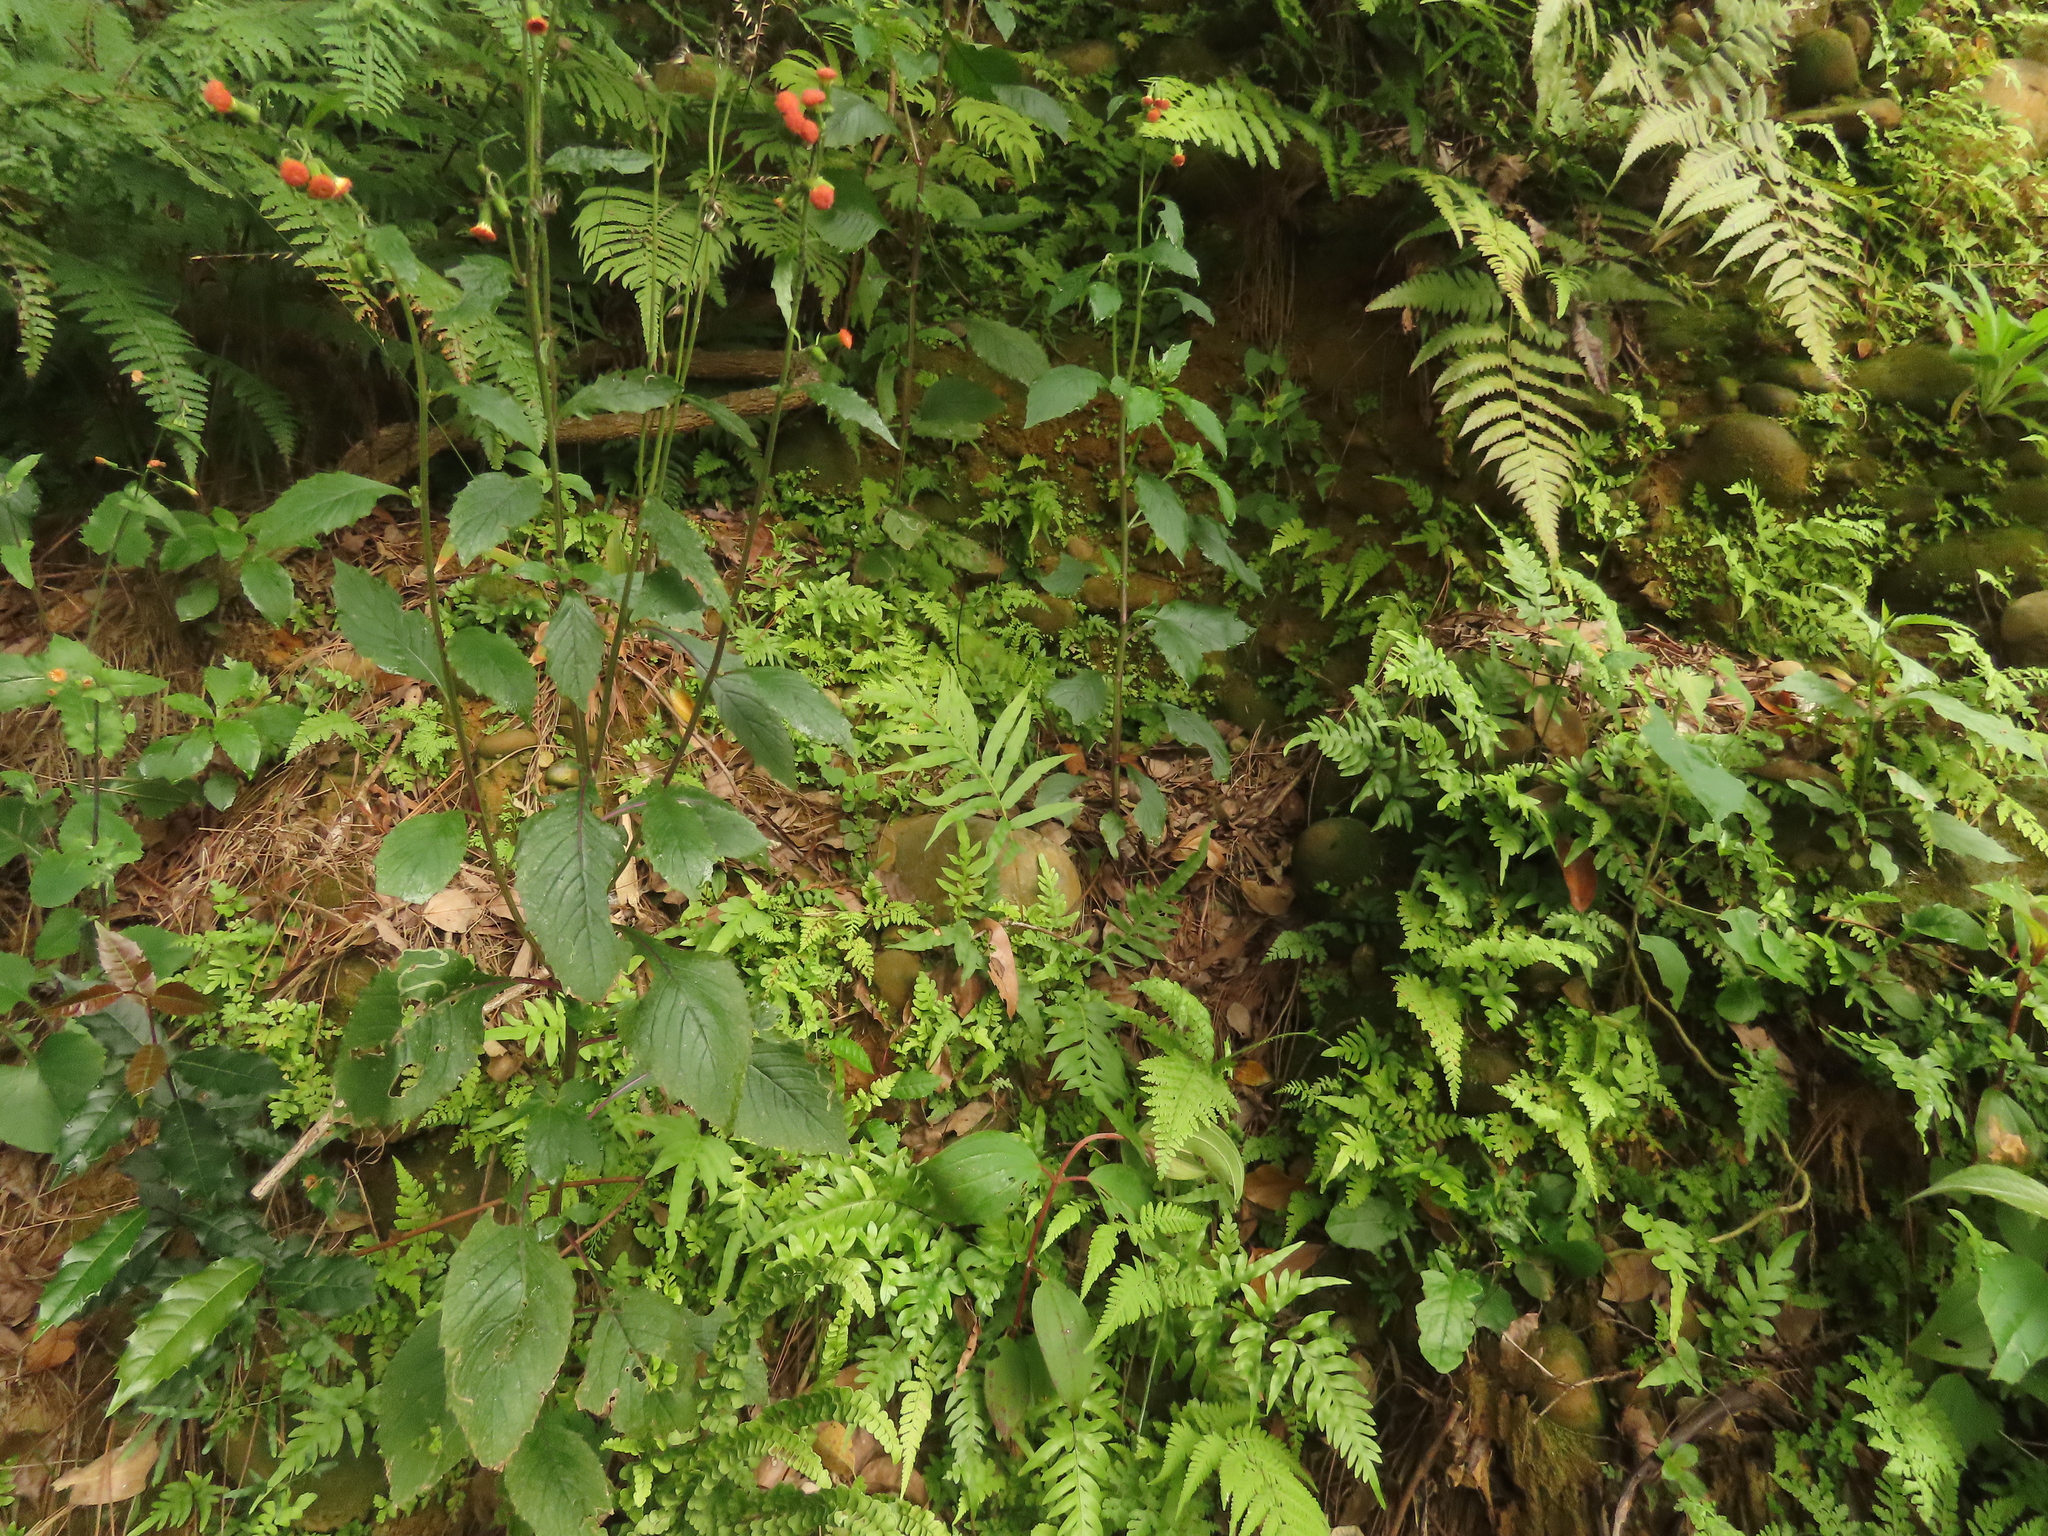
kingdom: Plantae
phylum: Tracheophyta
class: Polypodiopsida
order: Polypodiales
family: Blechnaceae
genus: Blechnopsis
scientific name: Blechnopsis orientalis
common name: Oriental blechnum
